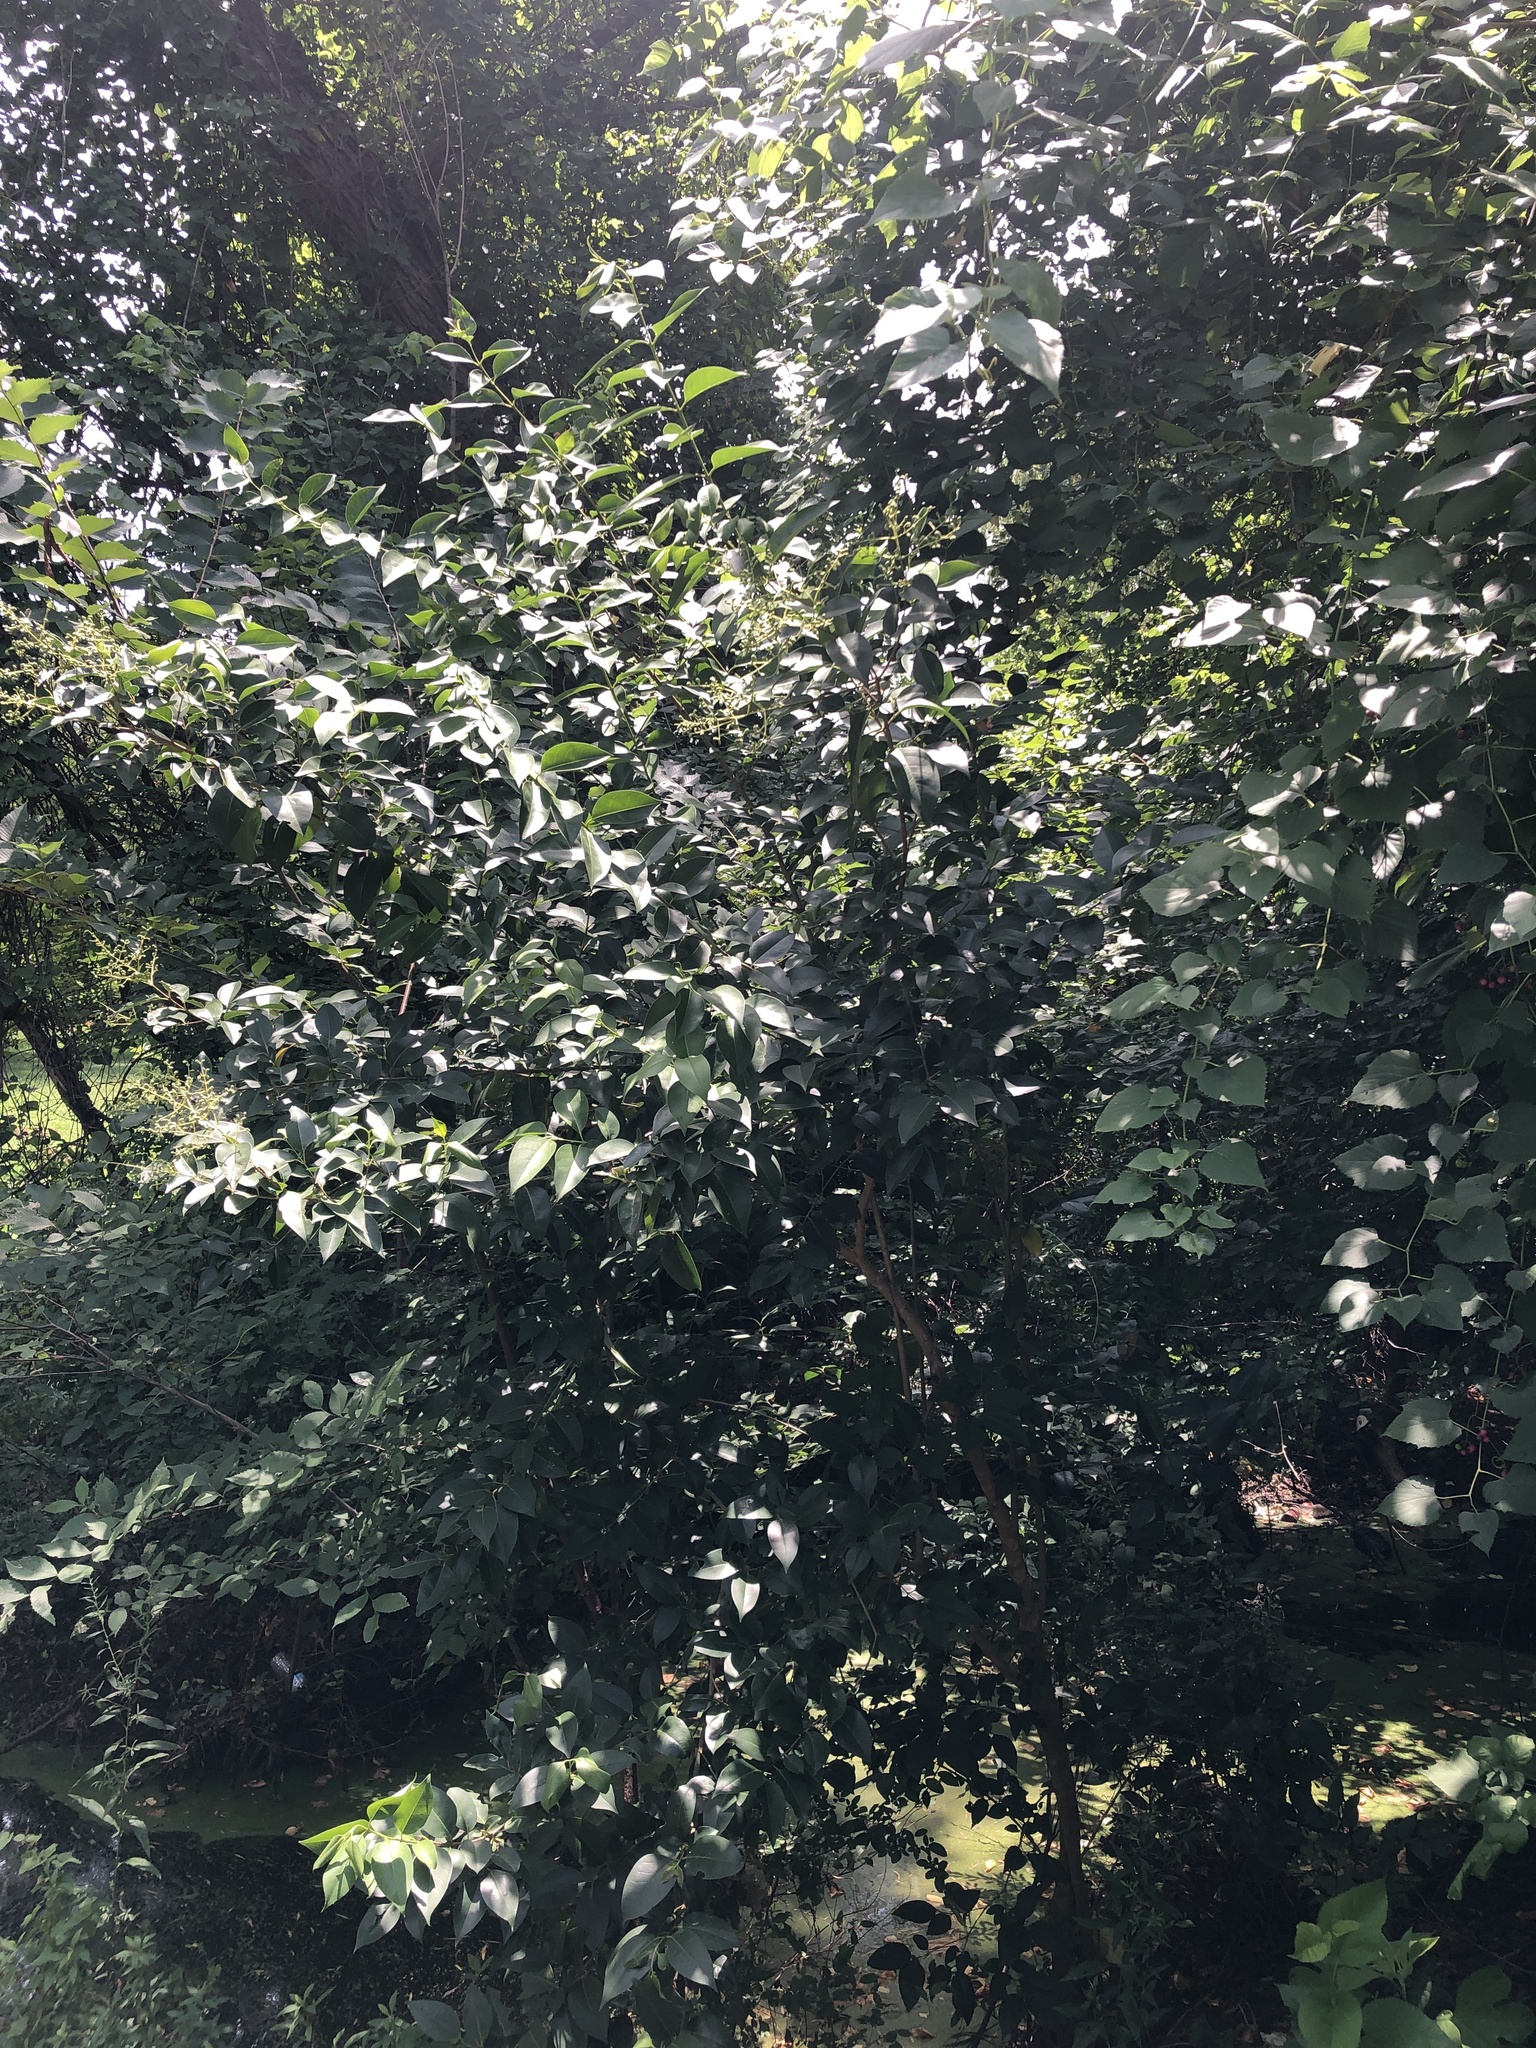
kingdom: Plantae
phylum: Tracheophyta
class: Magnoliopsida
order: Lamiales
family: Oleaceae
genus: Ligustrum
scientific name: Ligustrum lucidum
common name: Glossy privet
